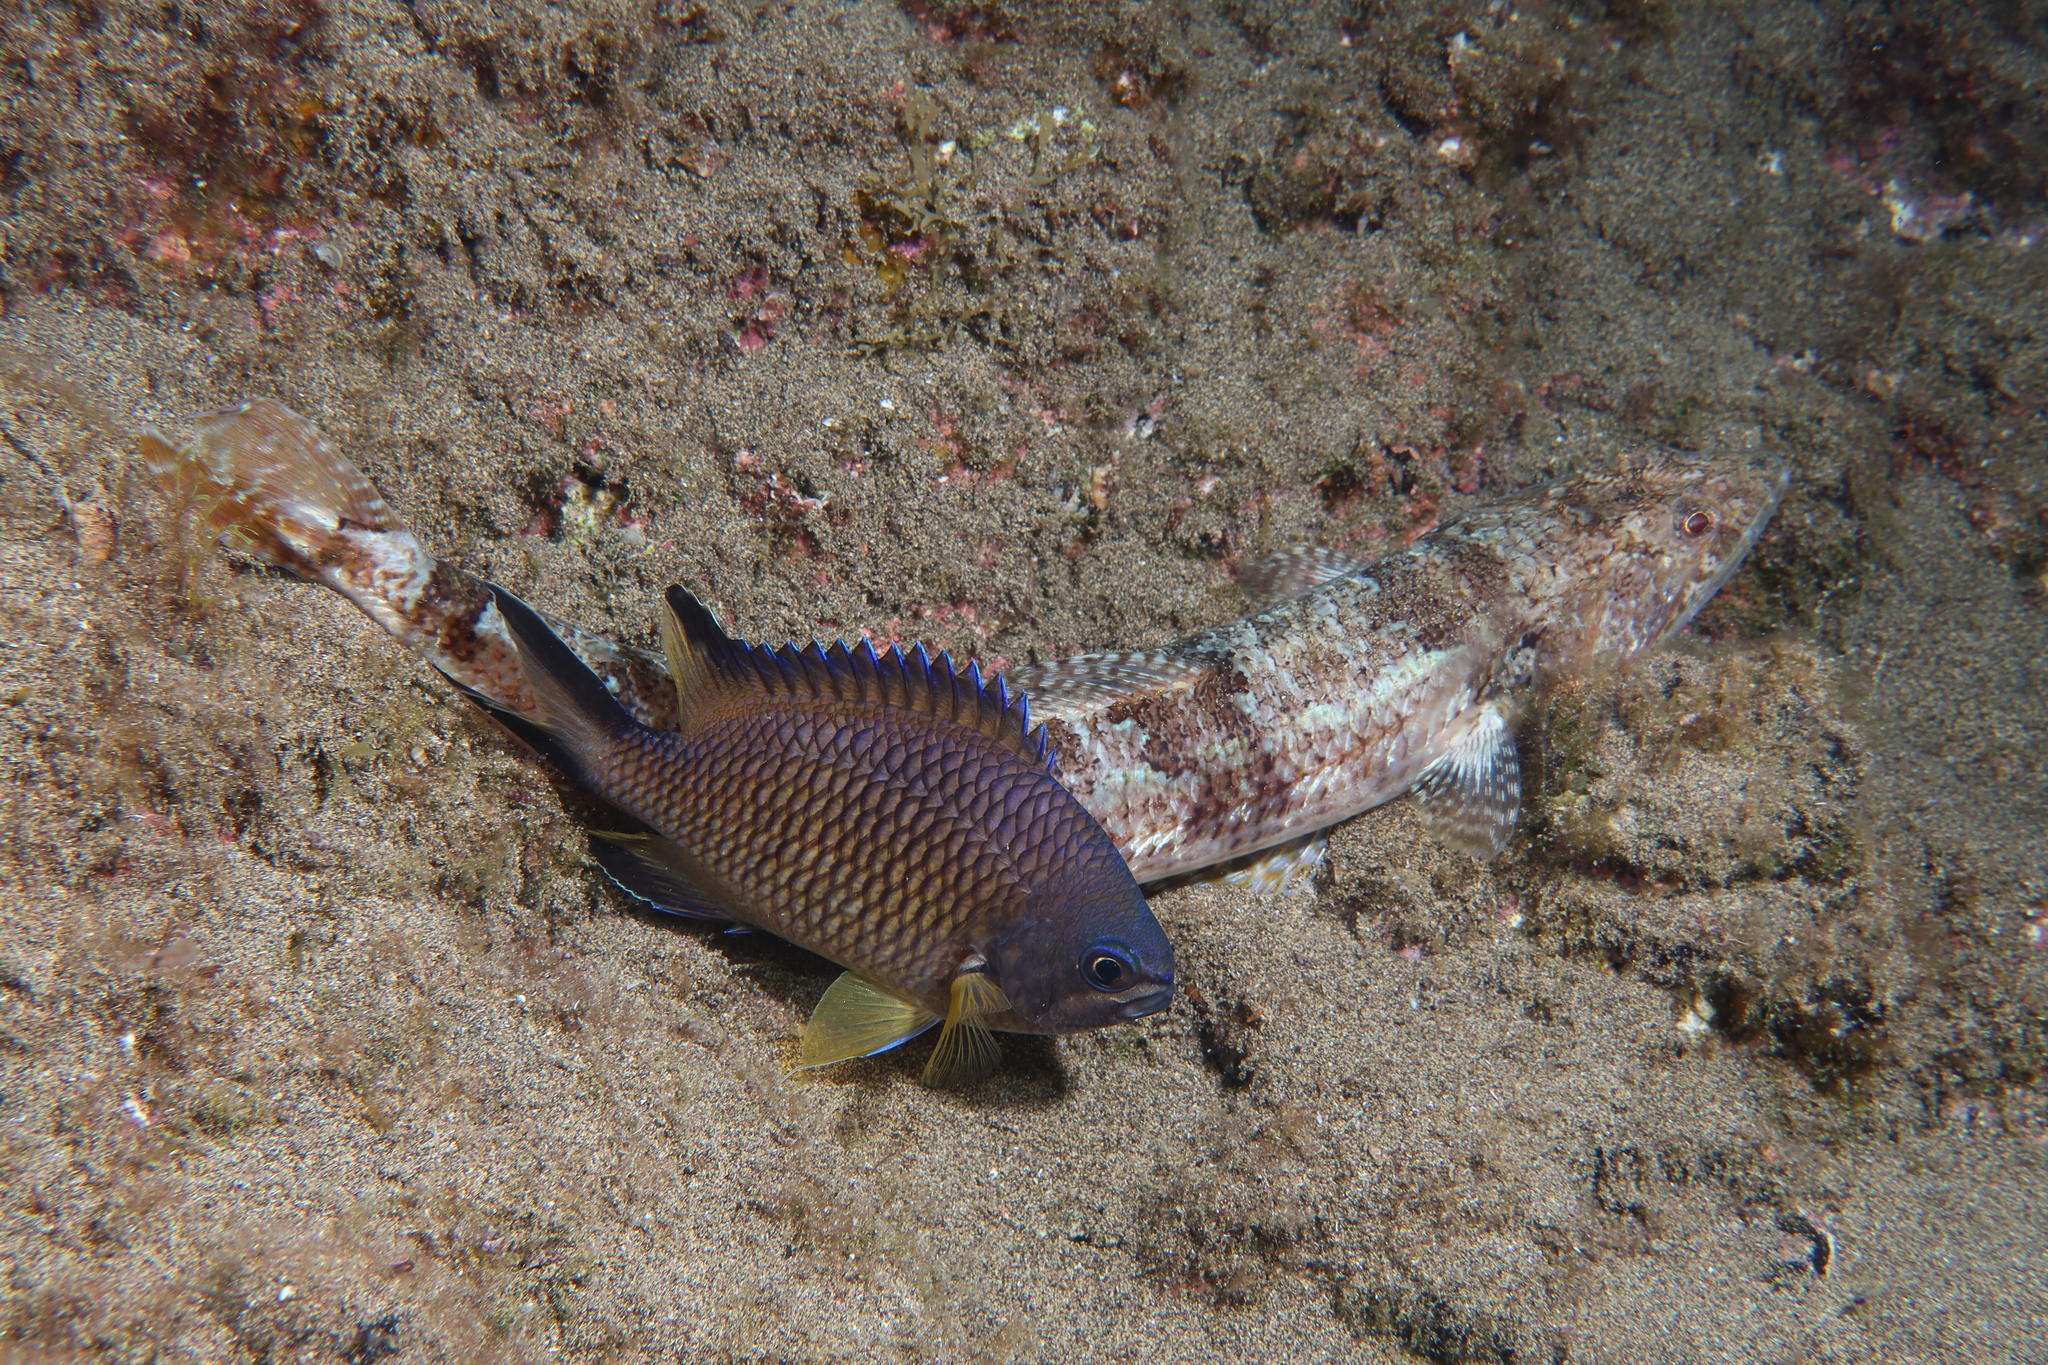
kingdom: Animalia
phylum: Chordata
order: Perciformes
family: Pomacentridae
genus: Chromis
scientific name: Chromis limbata
